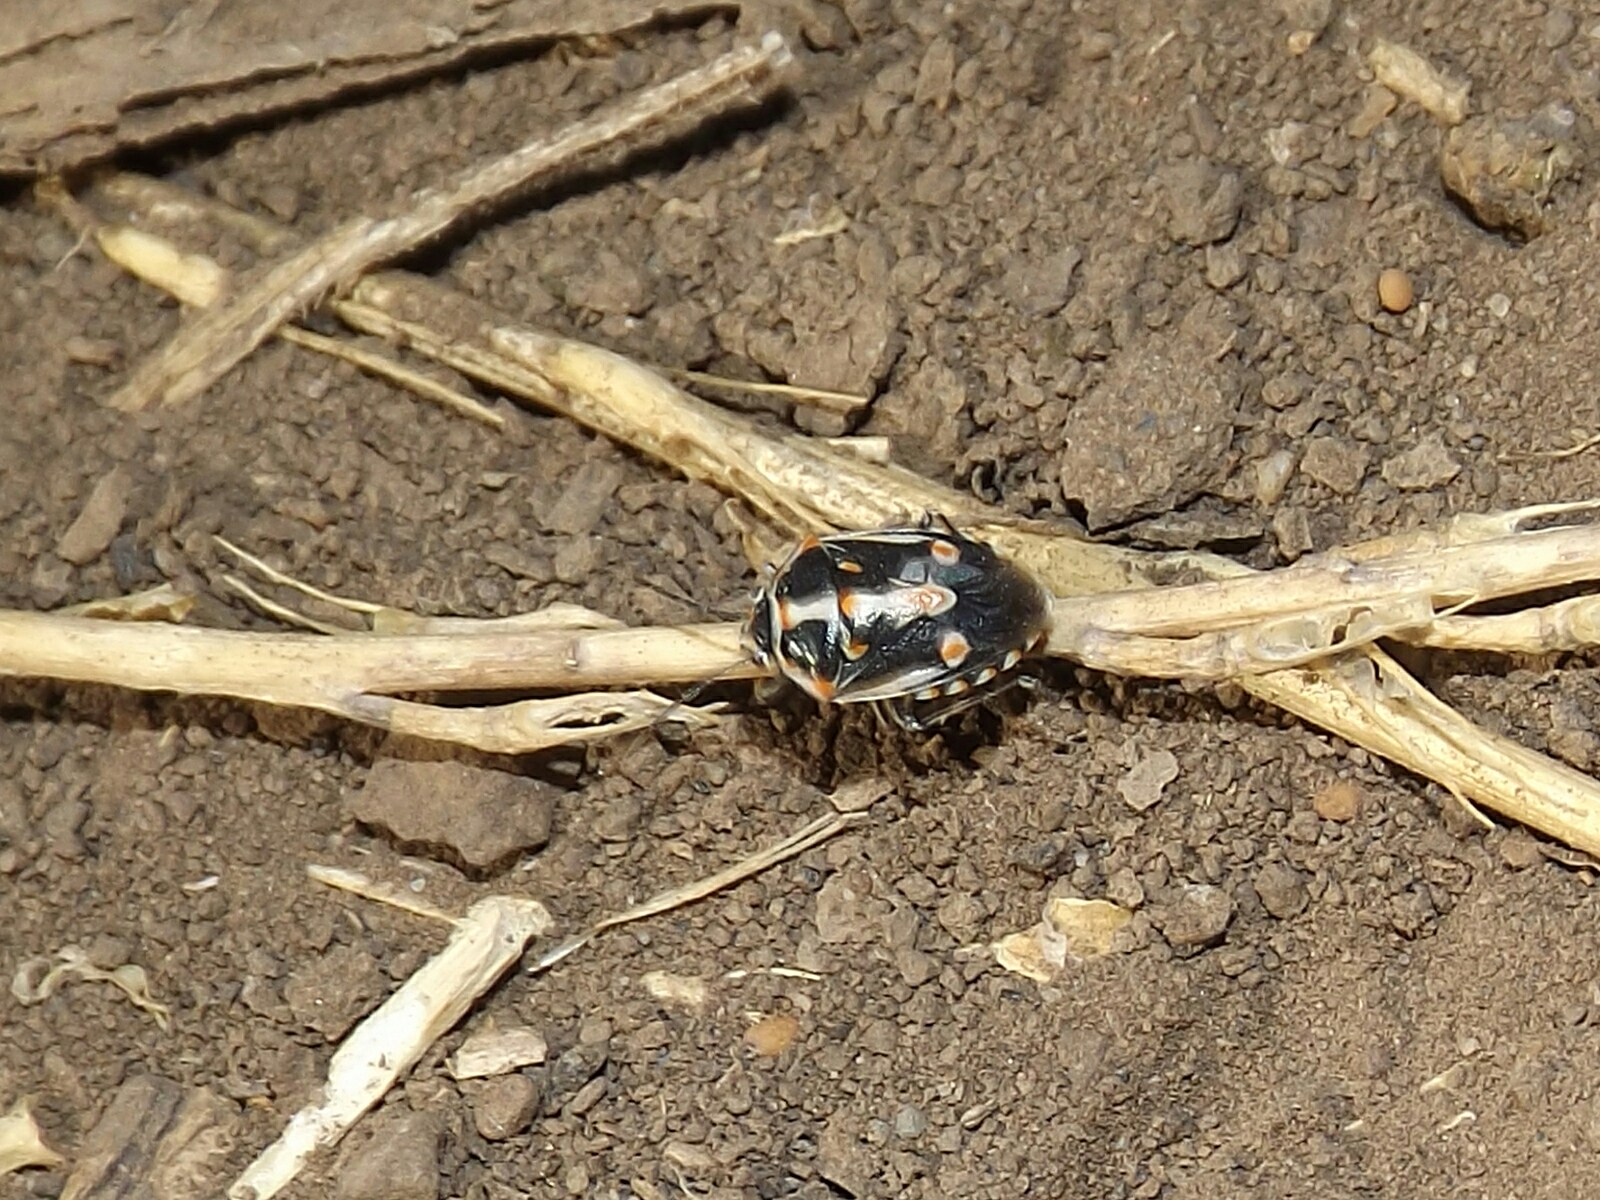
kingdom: Animalia
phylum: Arthropoda
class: Insecta
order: Hemiptera
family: Pentatomidae
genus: Bagrada
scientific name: Bagrada hilaris
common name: Bagrada bug
